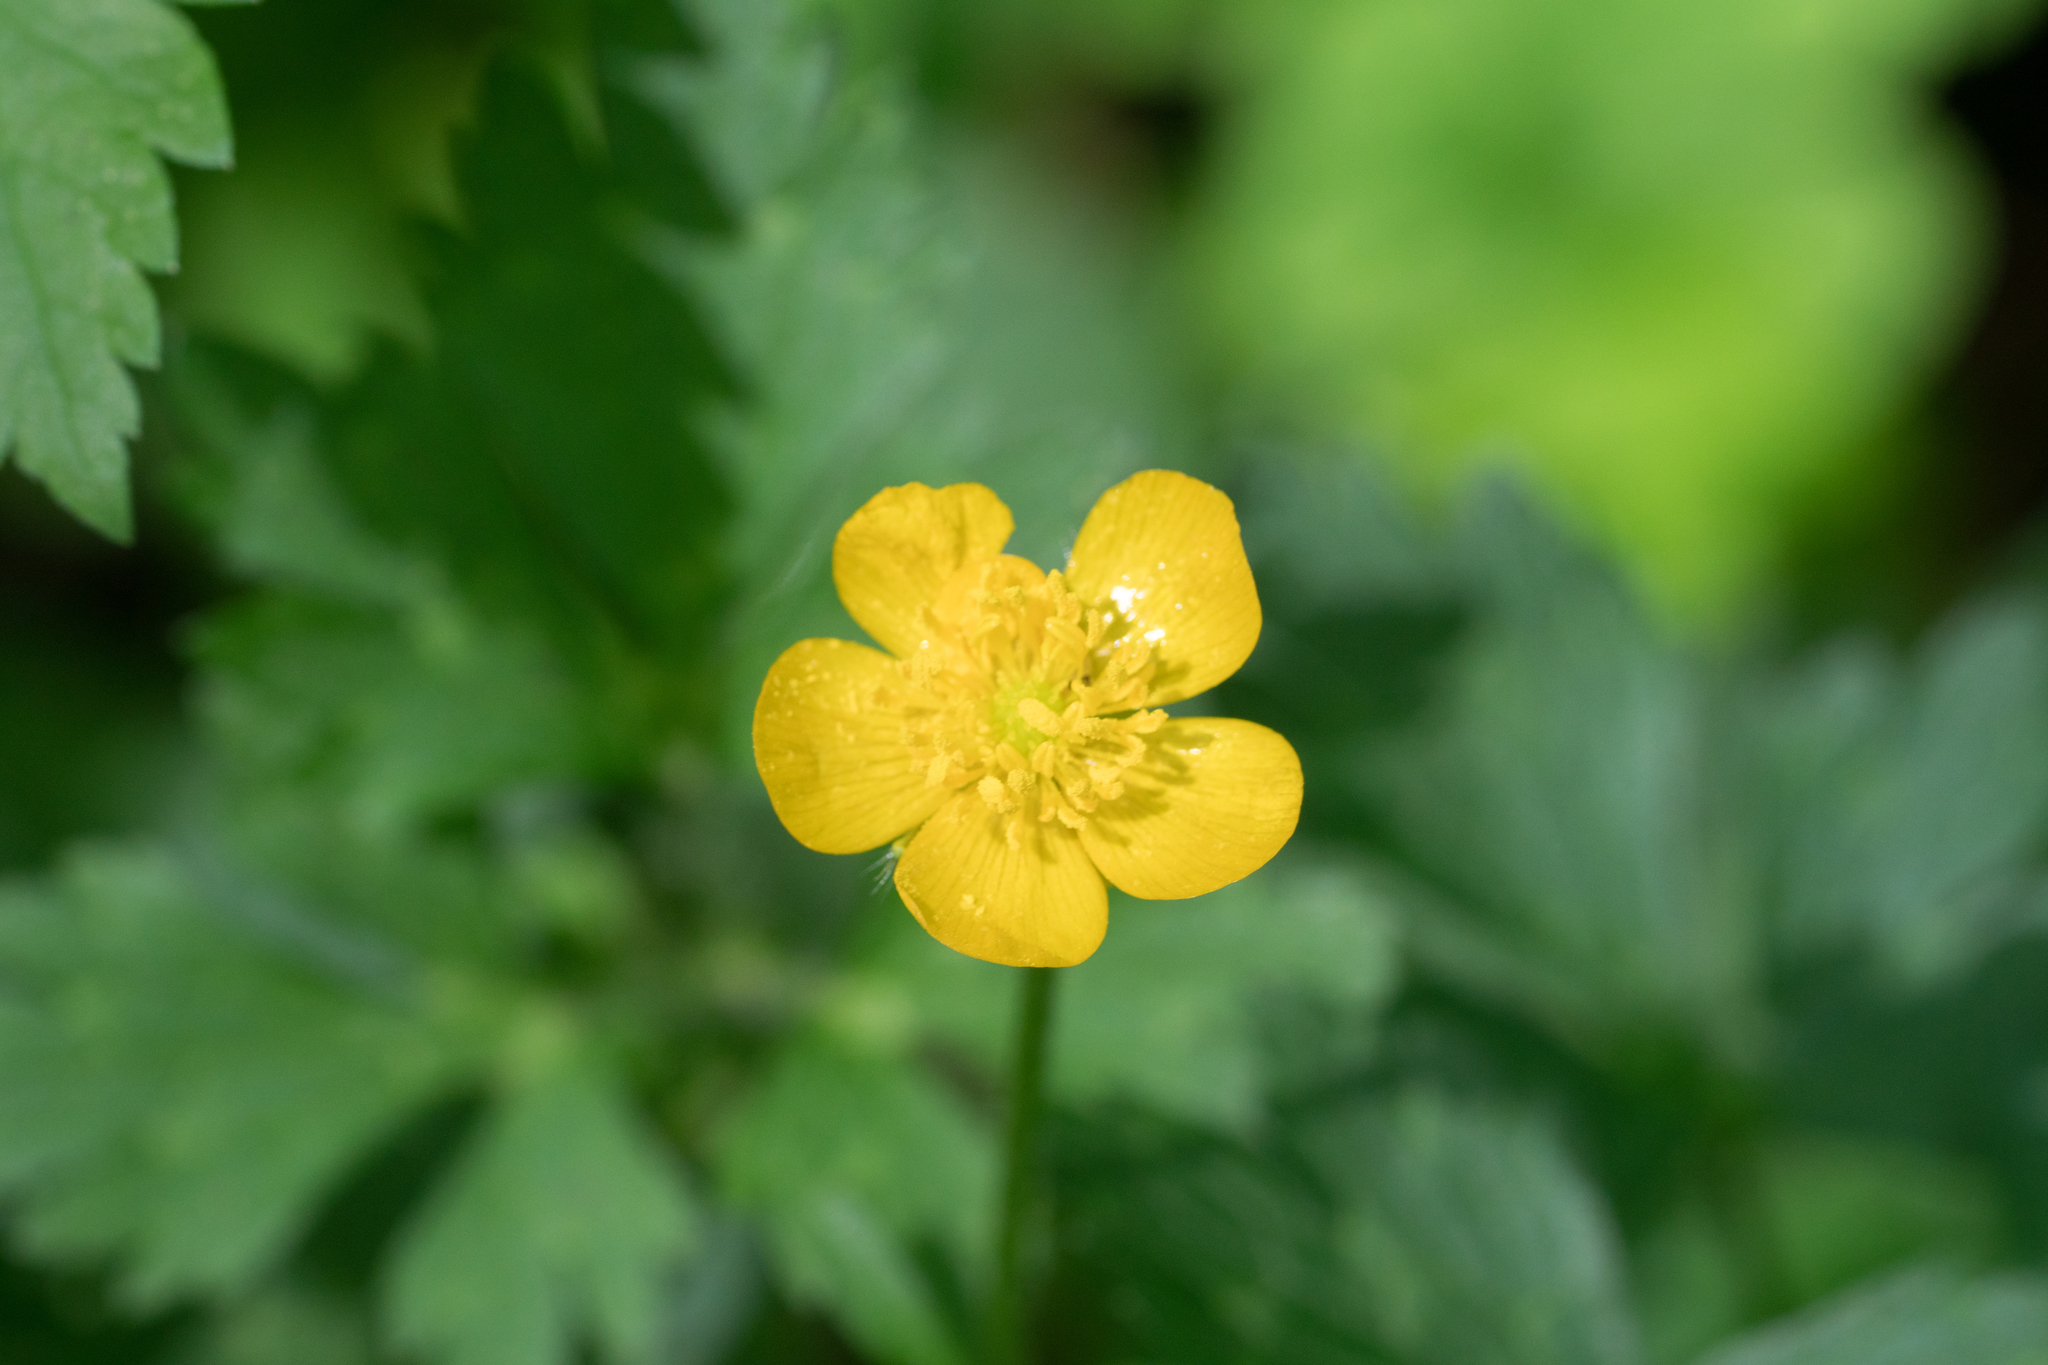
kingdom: Plantae
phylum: Tracheophyta
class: Magnoliopsida
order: Ranunculales
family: Ranunculaceae
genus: Ranunculus
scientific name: Ranunculus repens
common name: Creeping buttercup
